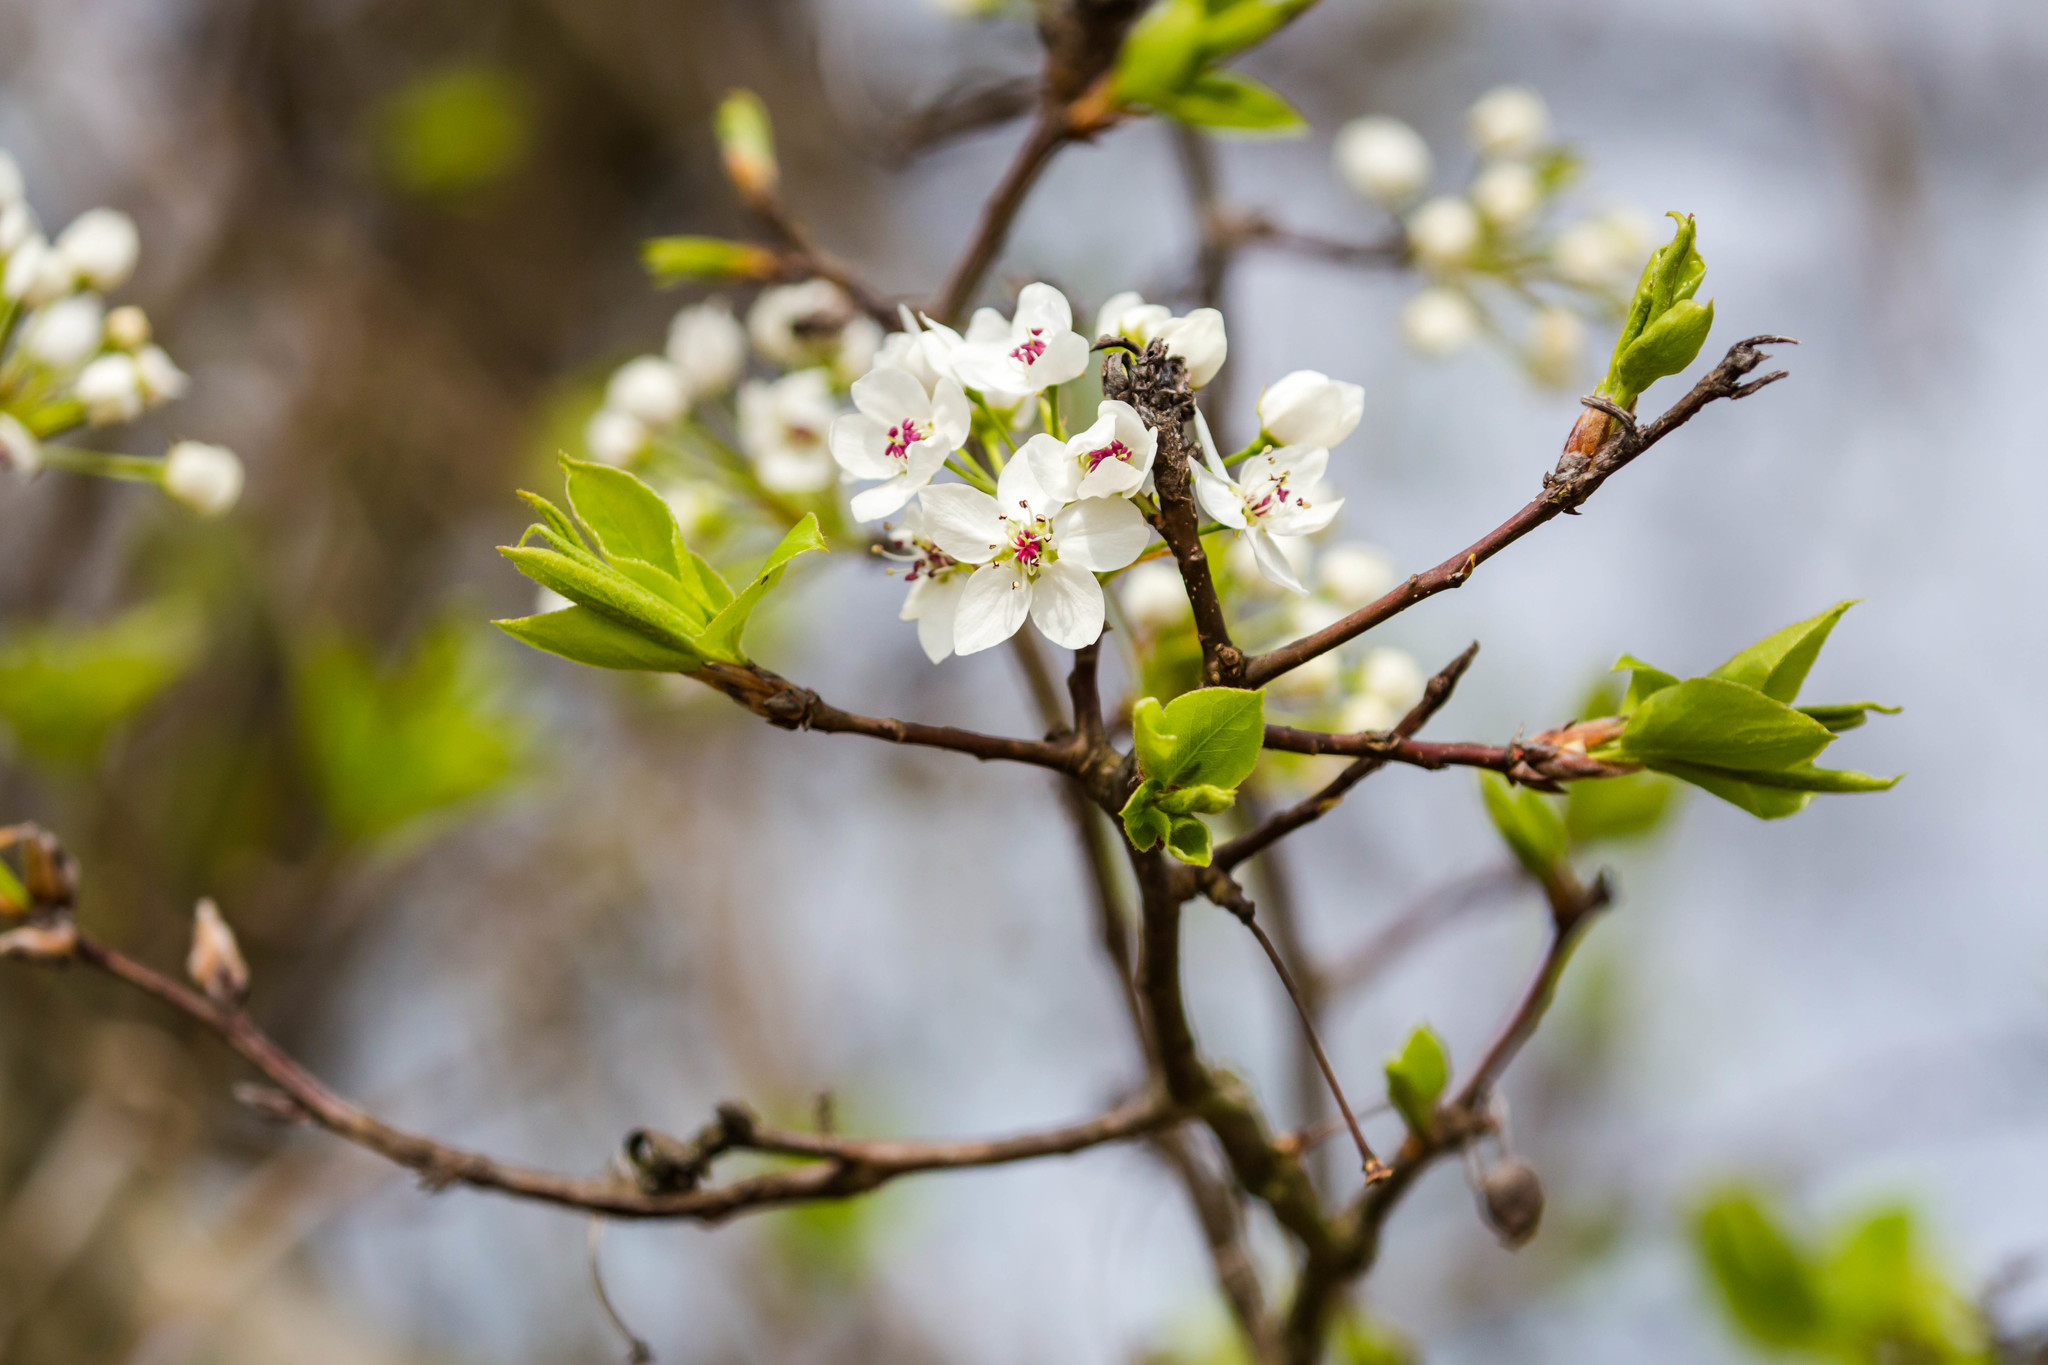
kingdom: Plantae
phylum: Tracheophyta
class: Magnoliopsida
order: Rosales
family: Rosaceae
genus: Pyrus
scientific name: Pyrus calleryana
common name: Callery pear
